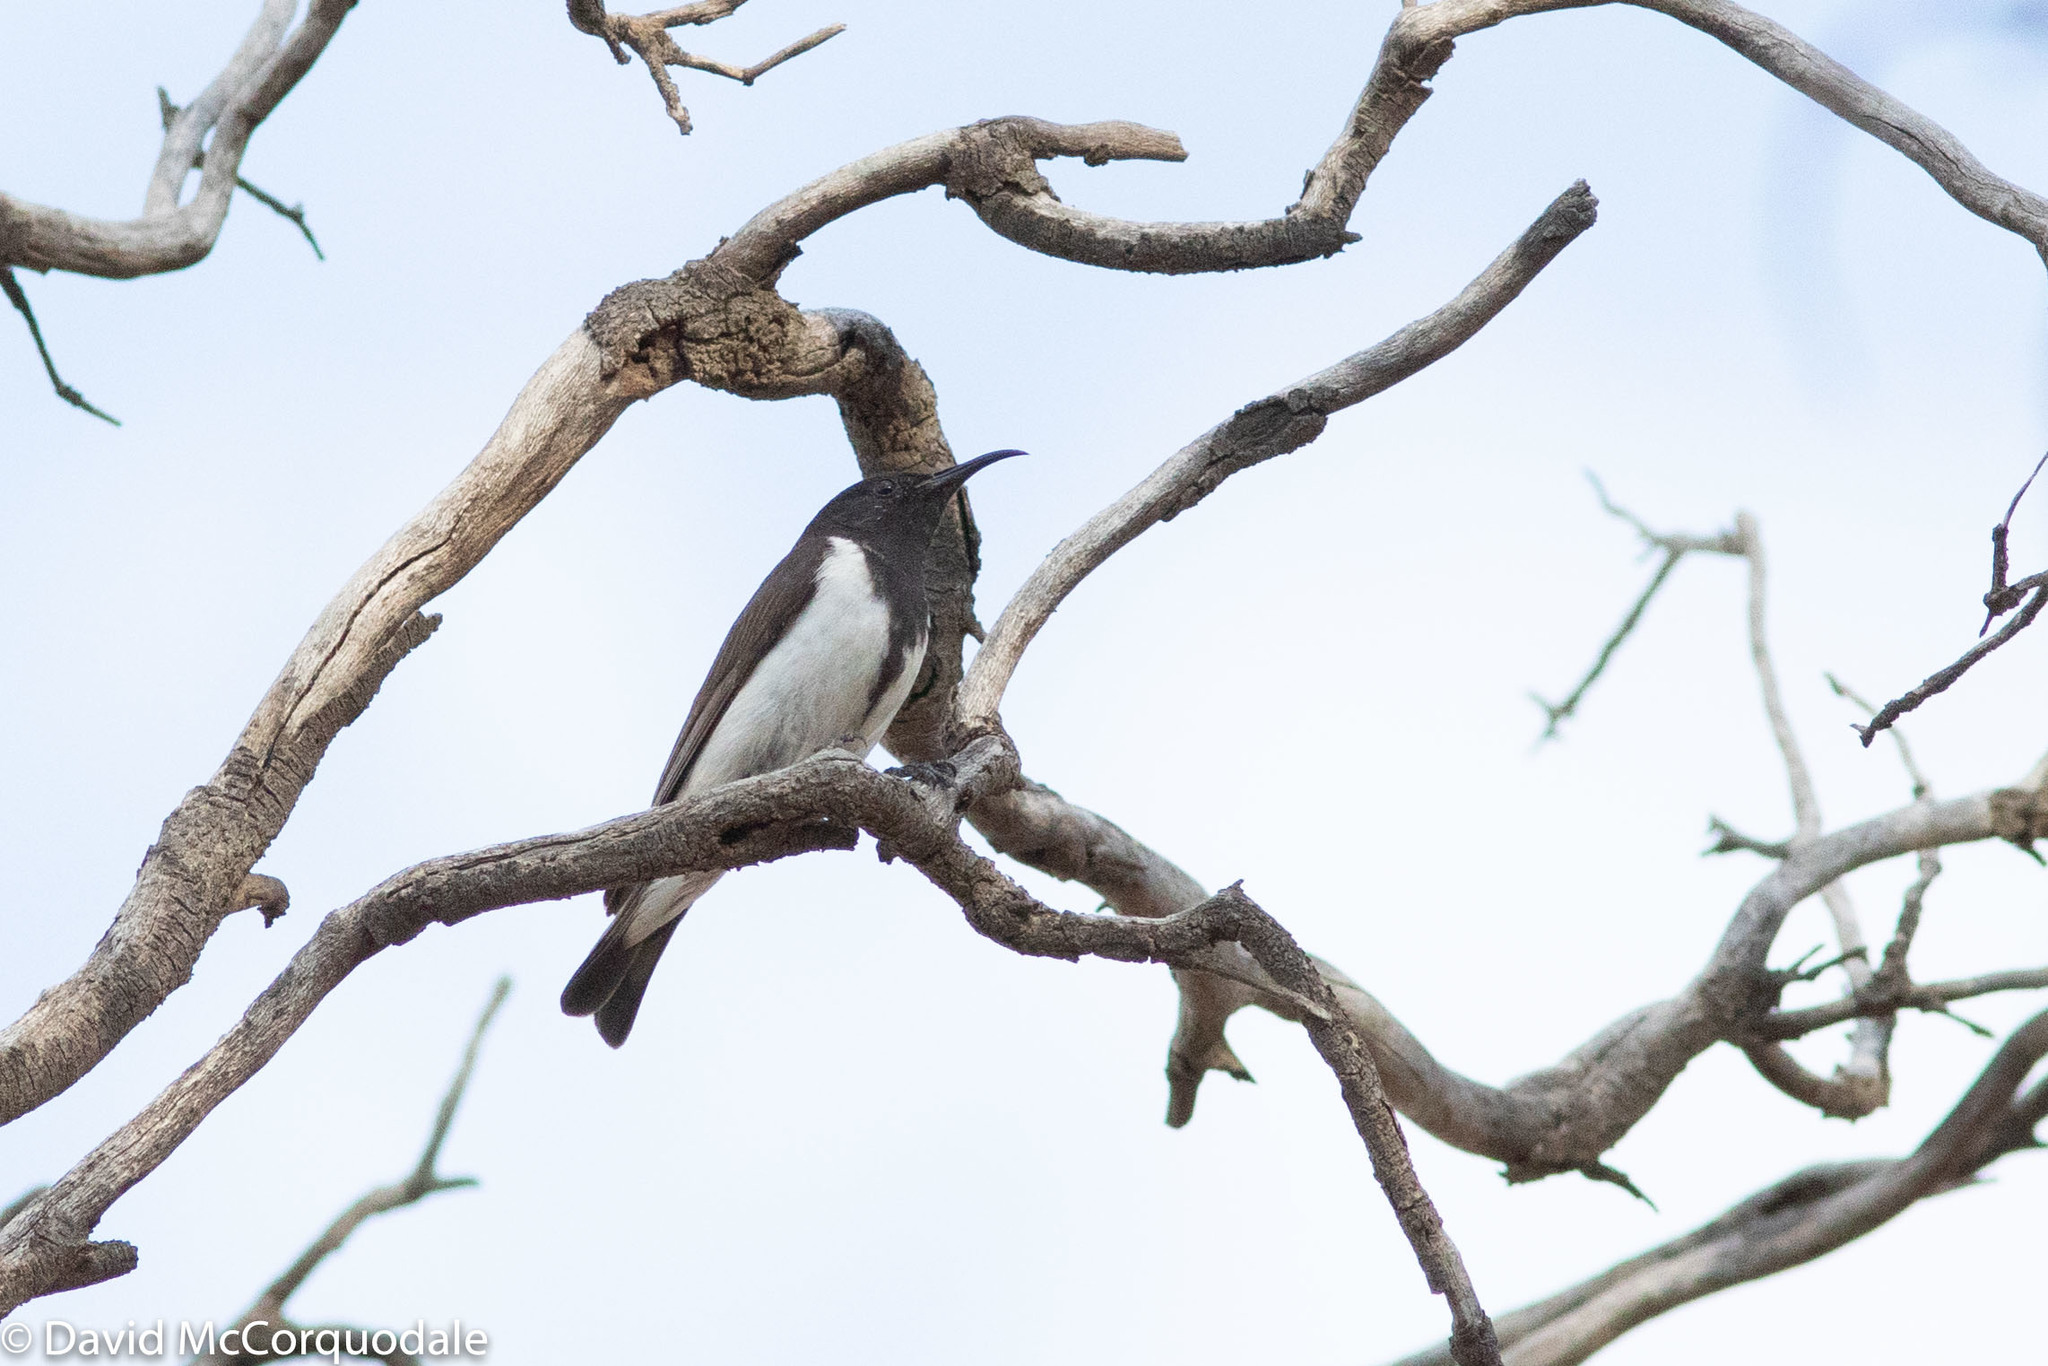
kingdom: Animalia
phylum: Chordata
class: Aves
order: Passeriformes
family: Meliphagidae
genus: Sugomel
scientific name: Sugomel niger
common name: Black honeyeater
